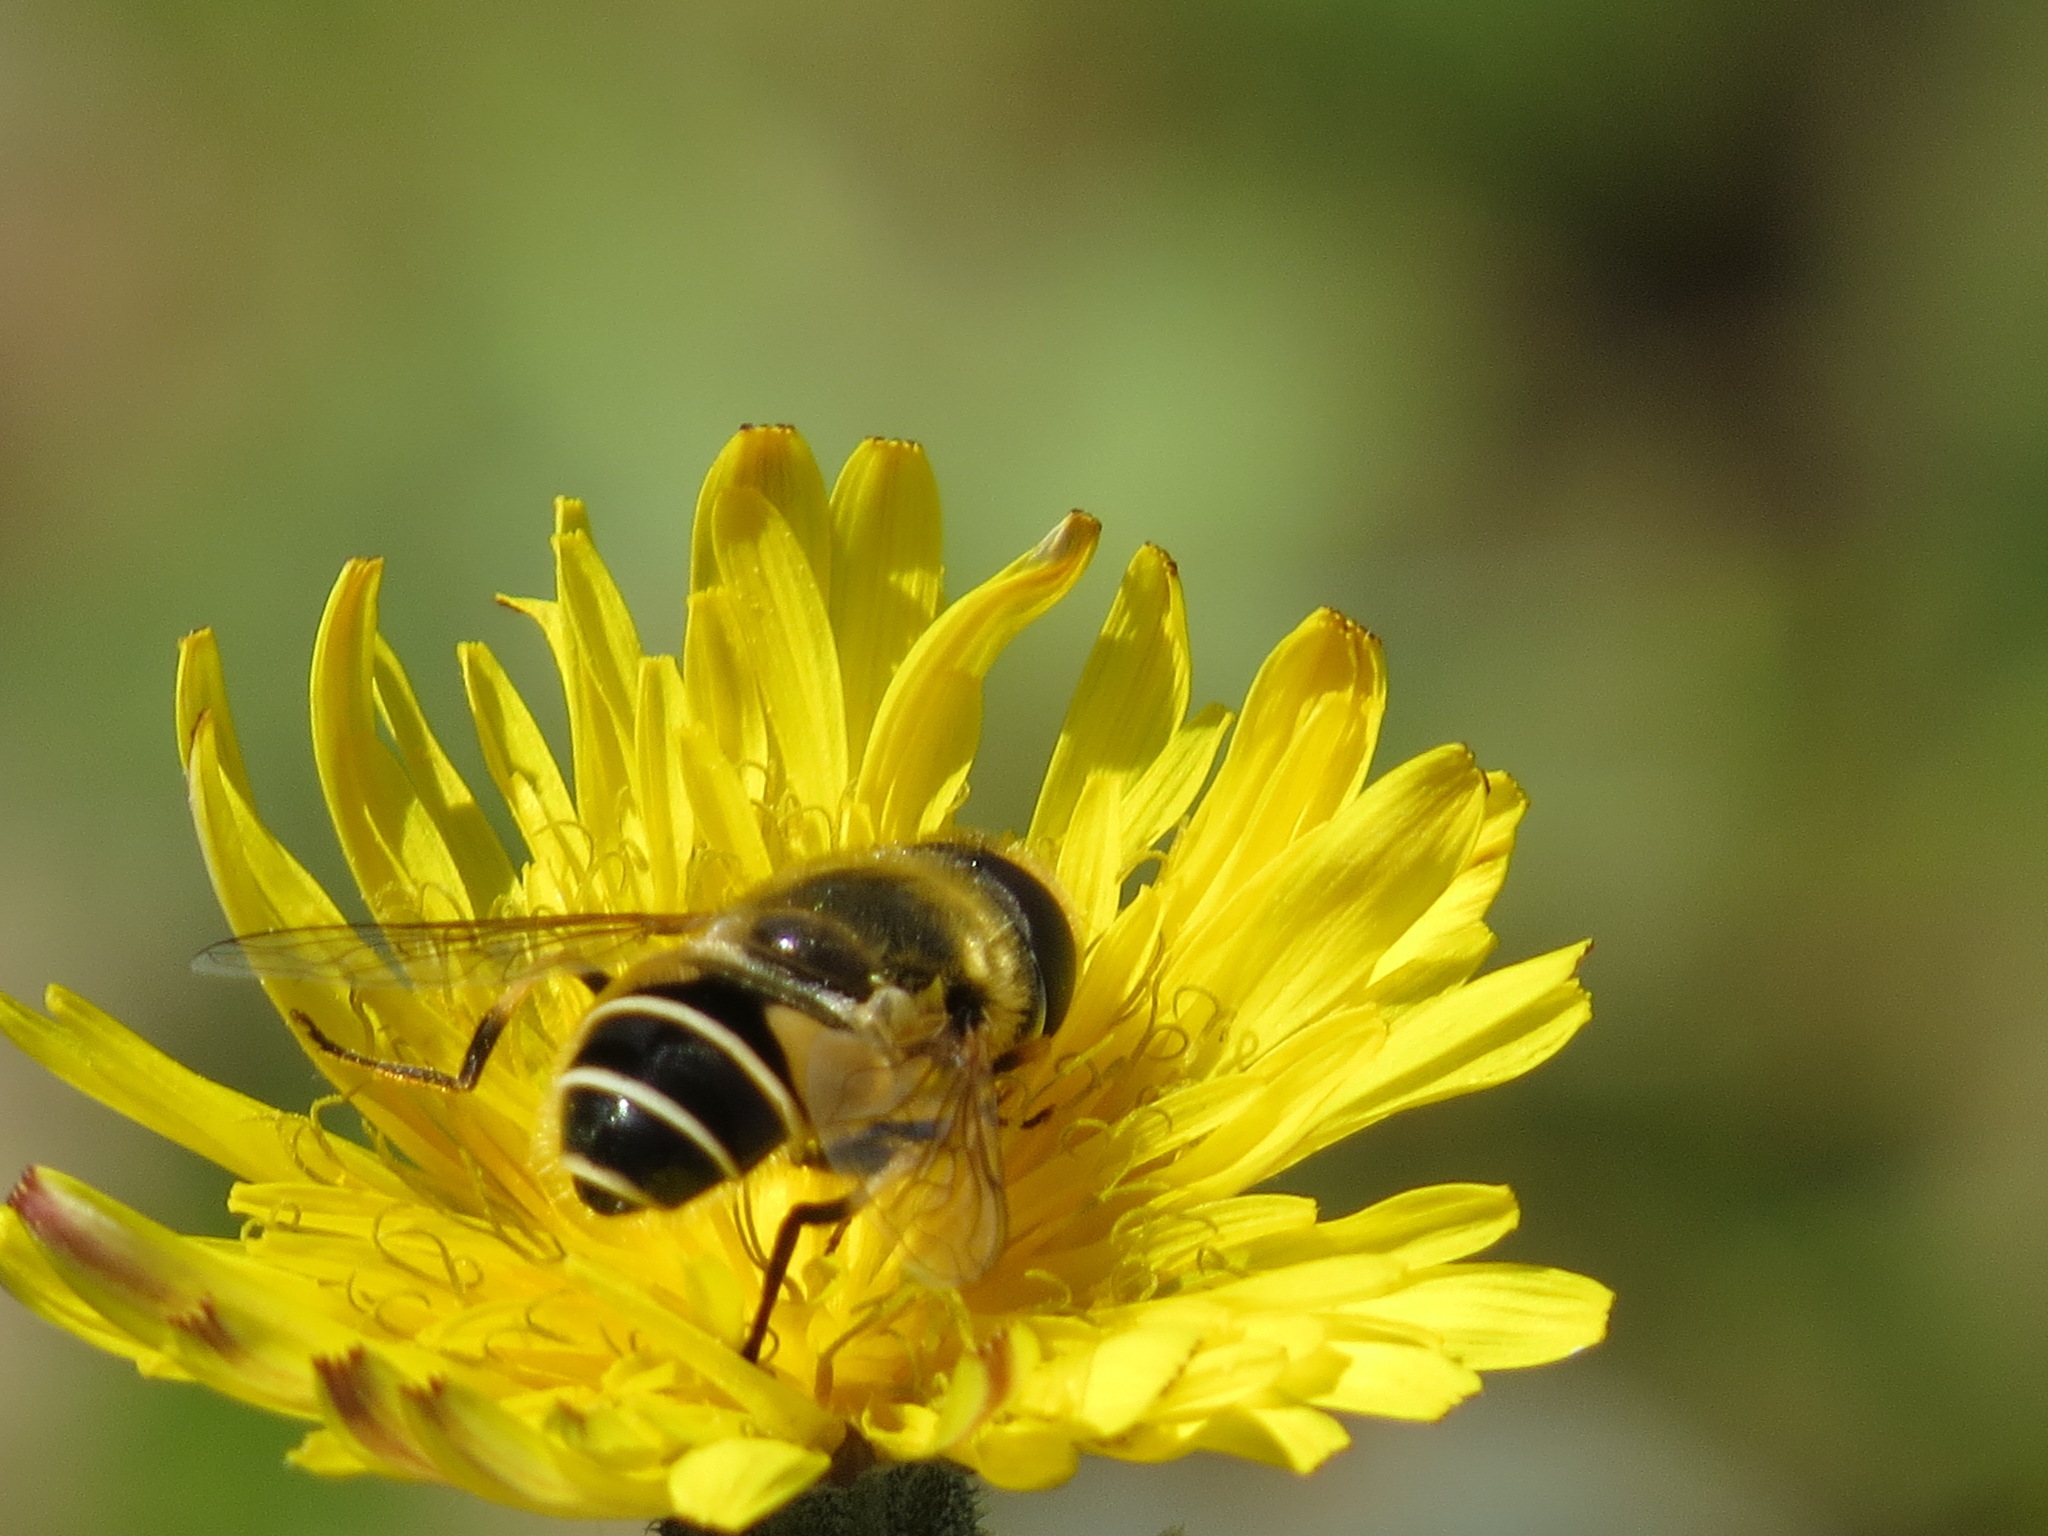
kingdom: Animalia
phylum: Arthropoda
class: Insecta
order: Diptera
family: Syrphidae
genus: Eristalis
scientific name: Eristalis hirta
